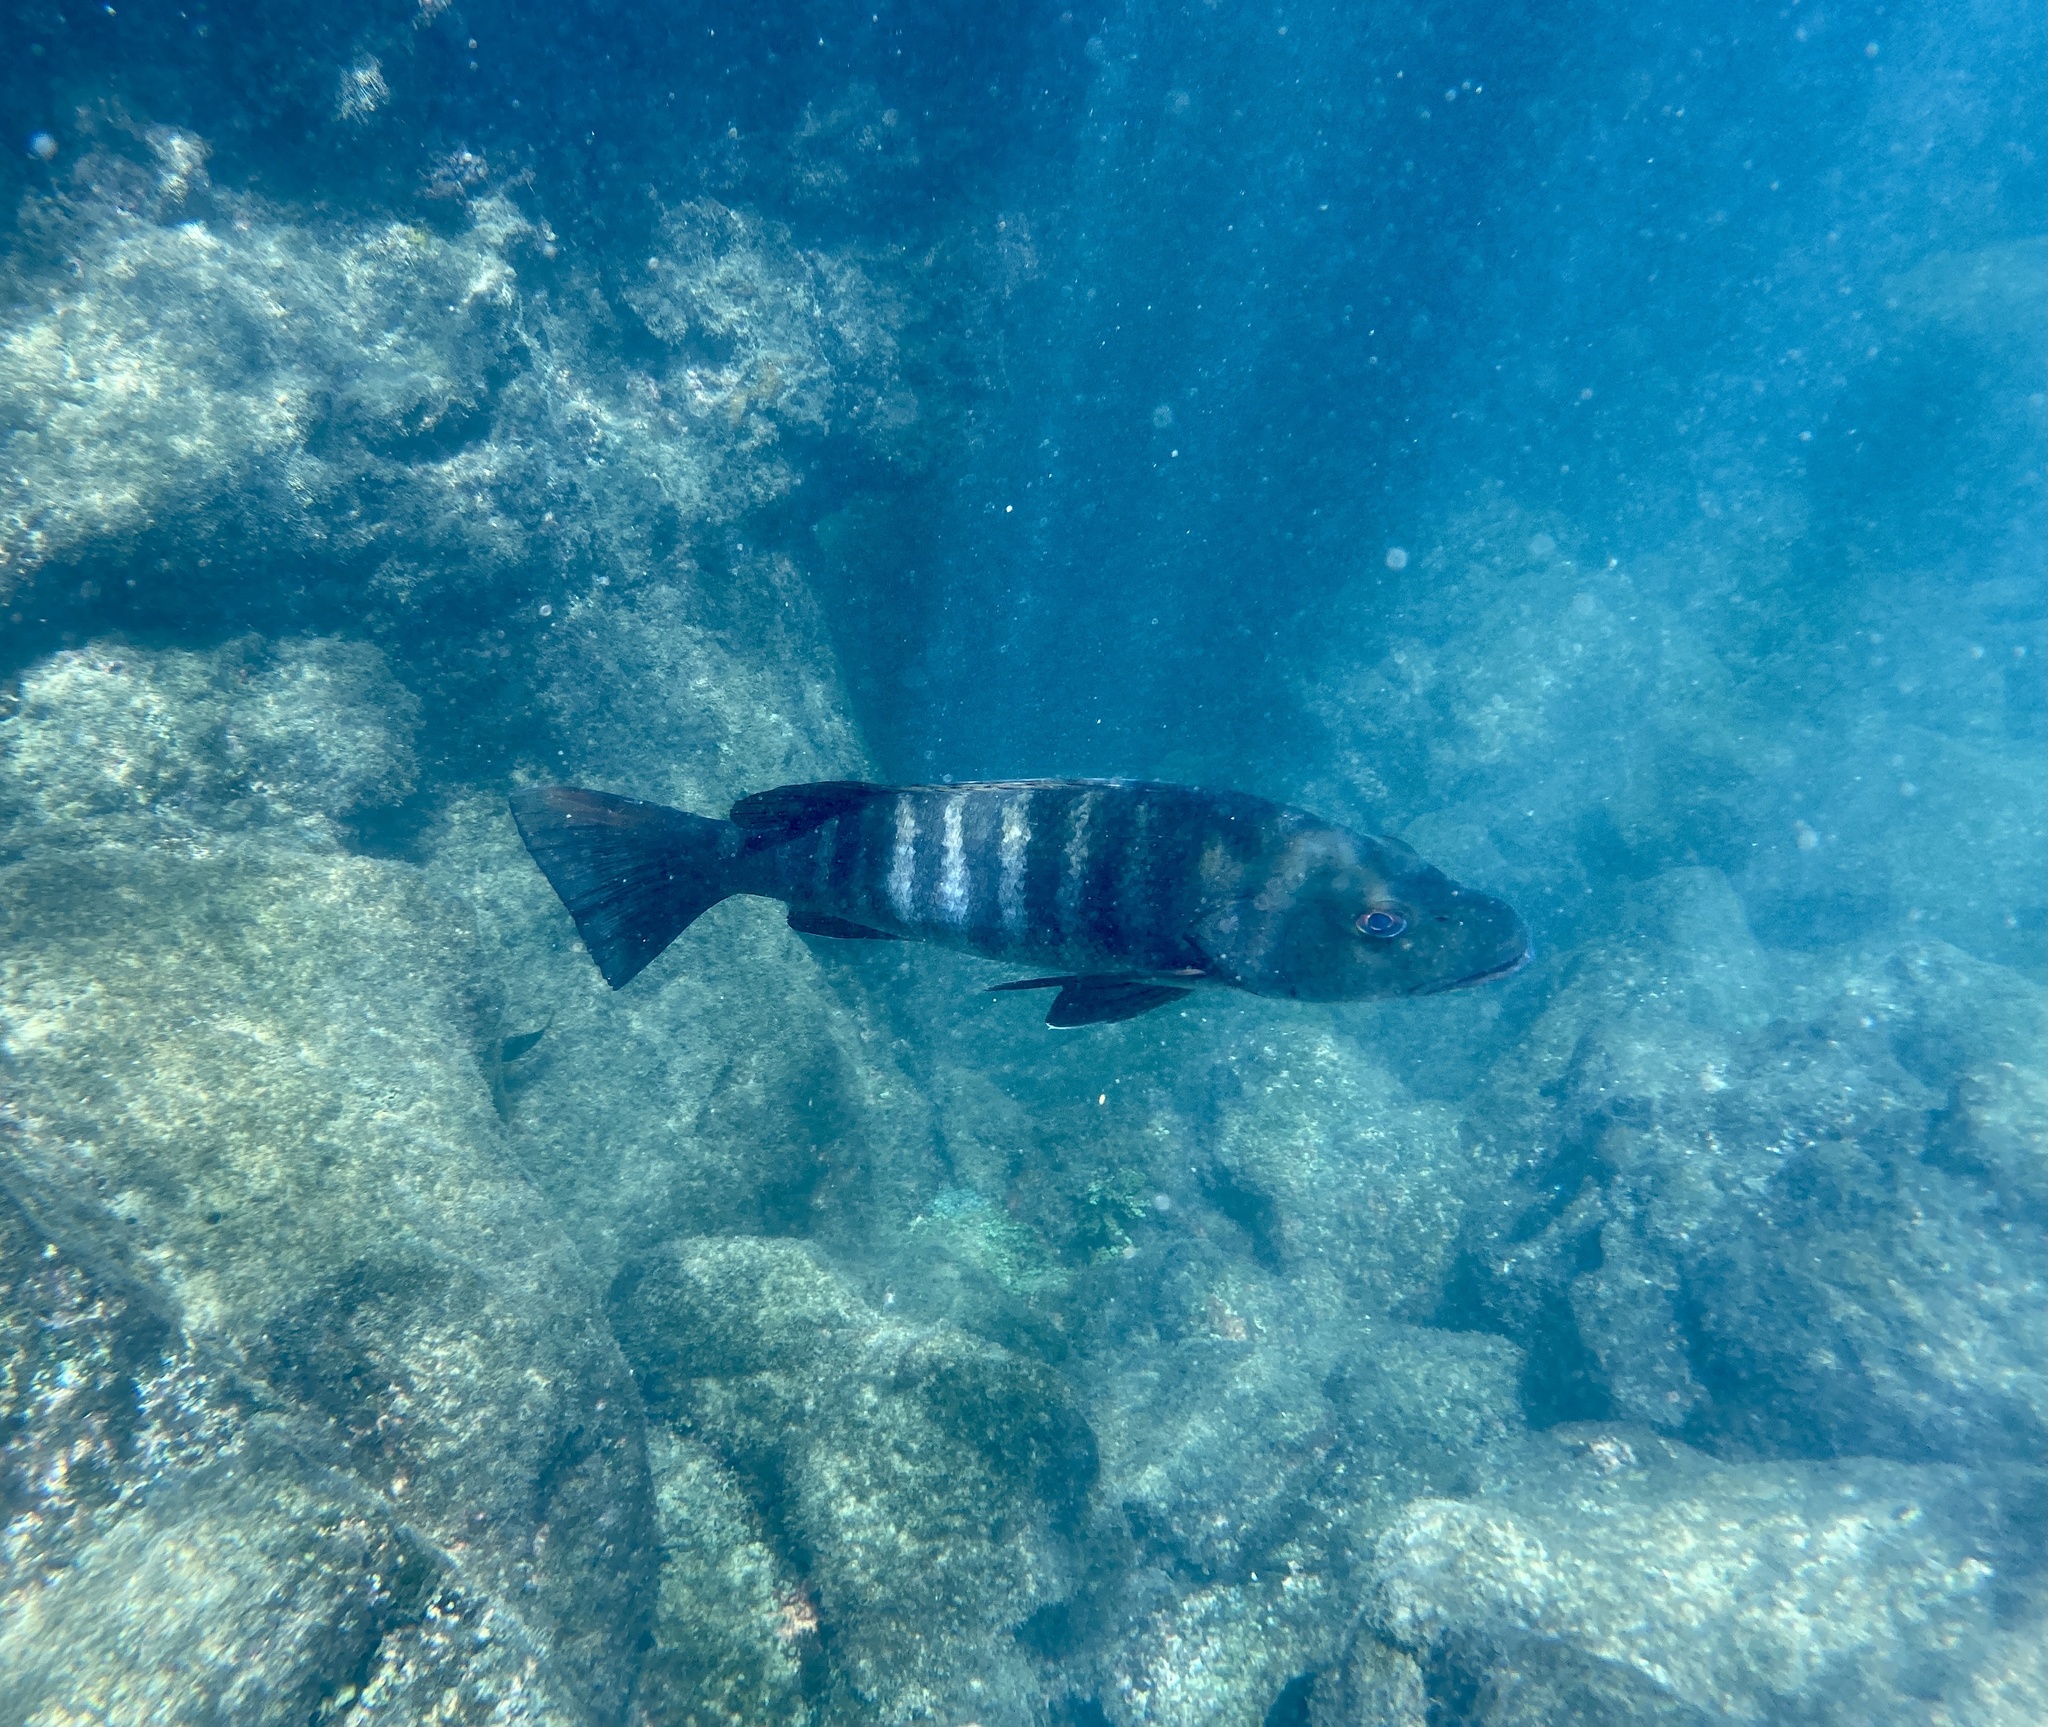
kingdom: Animalia
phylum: Chordata
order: Perciformes
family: Lutjanidae
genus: Lutjanus
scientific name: Lutjanus novemfasciatus
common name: Pacific dog snapper
